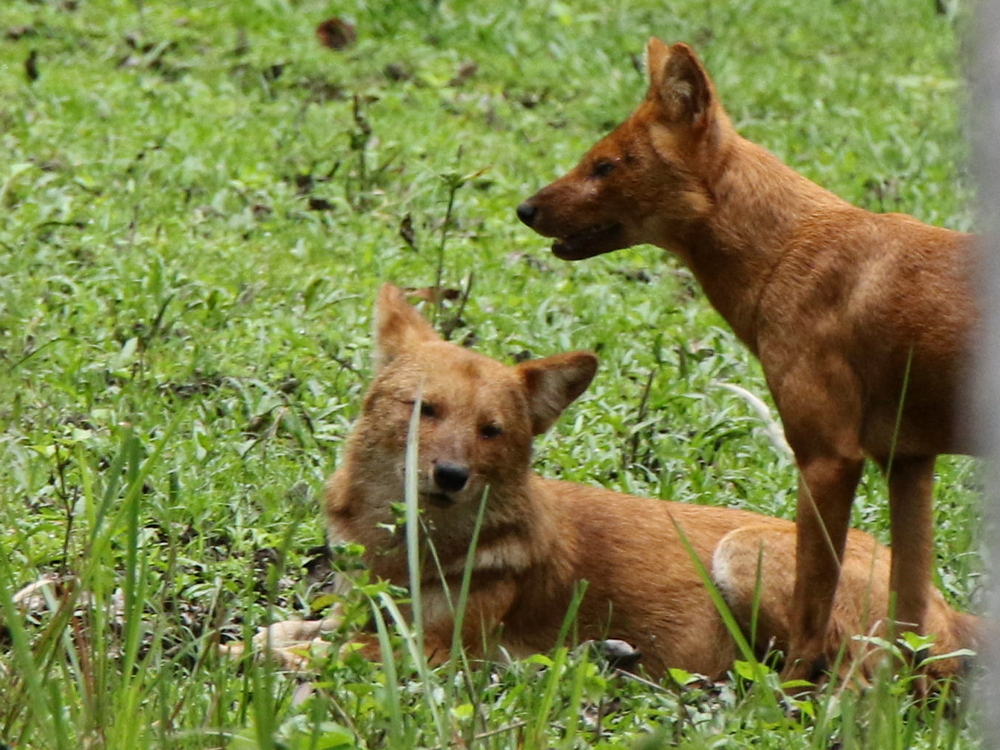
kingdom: Animalia
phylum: Chordata
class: Mammalia
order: Carnivora
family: Canidae
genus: Cuon
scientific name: Cuon alpinus
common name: Dhole
